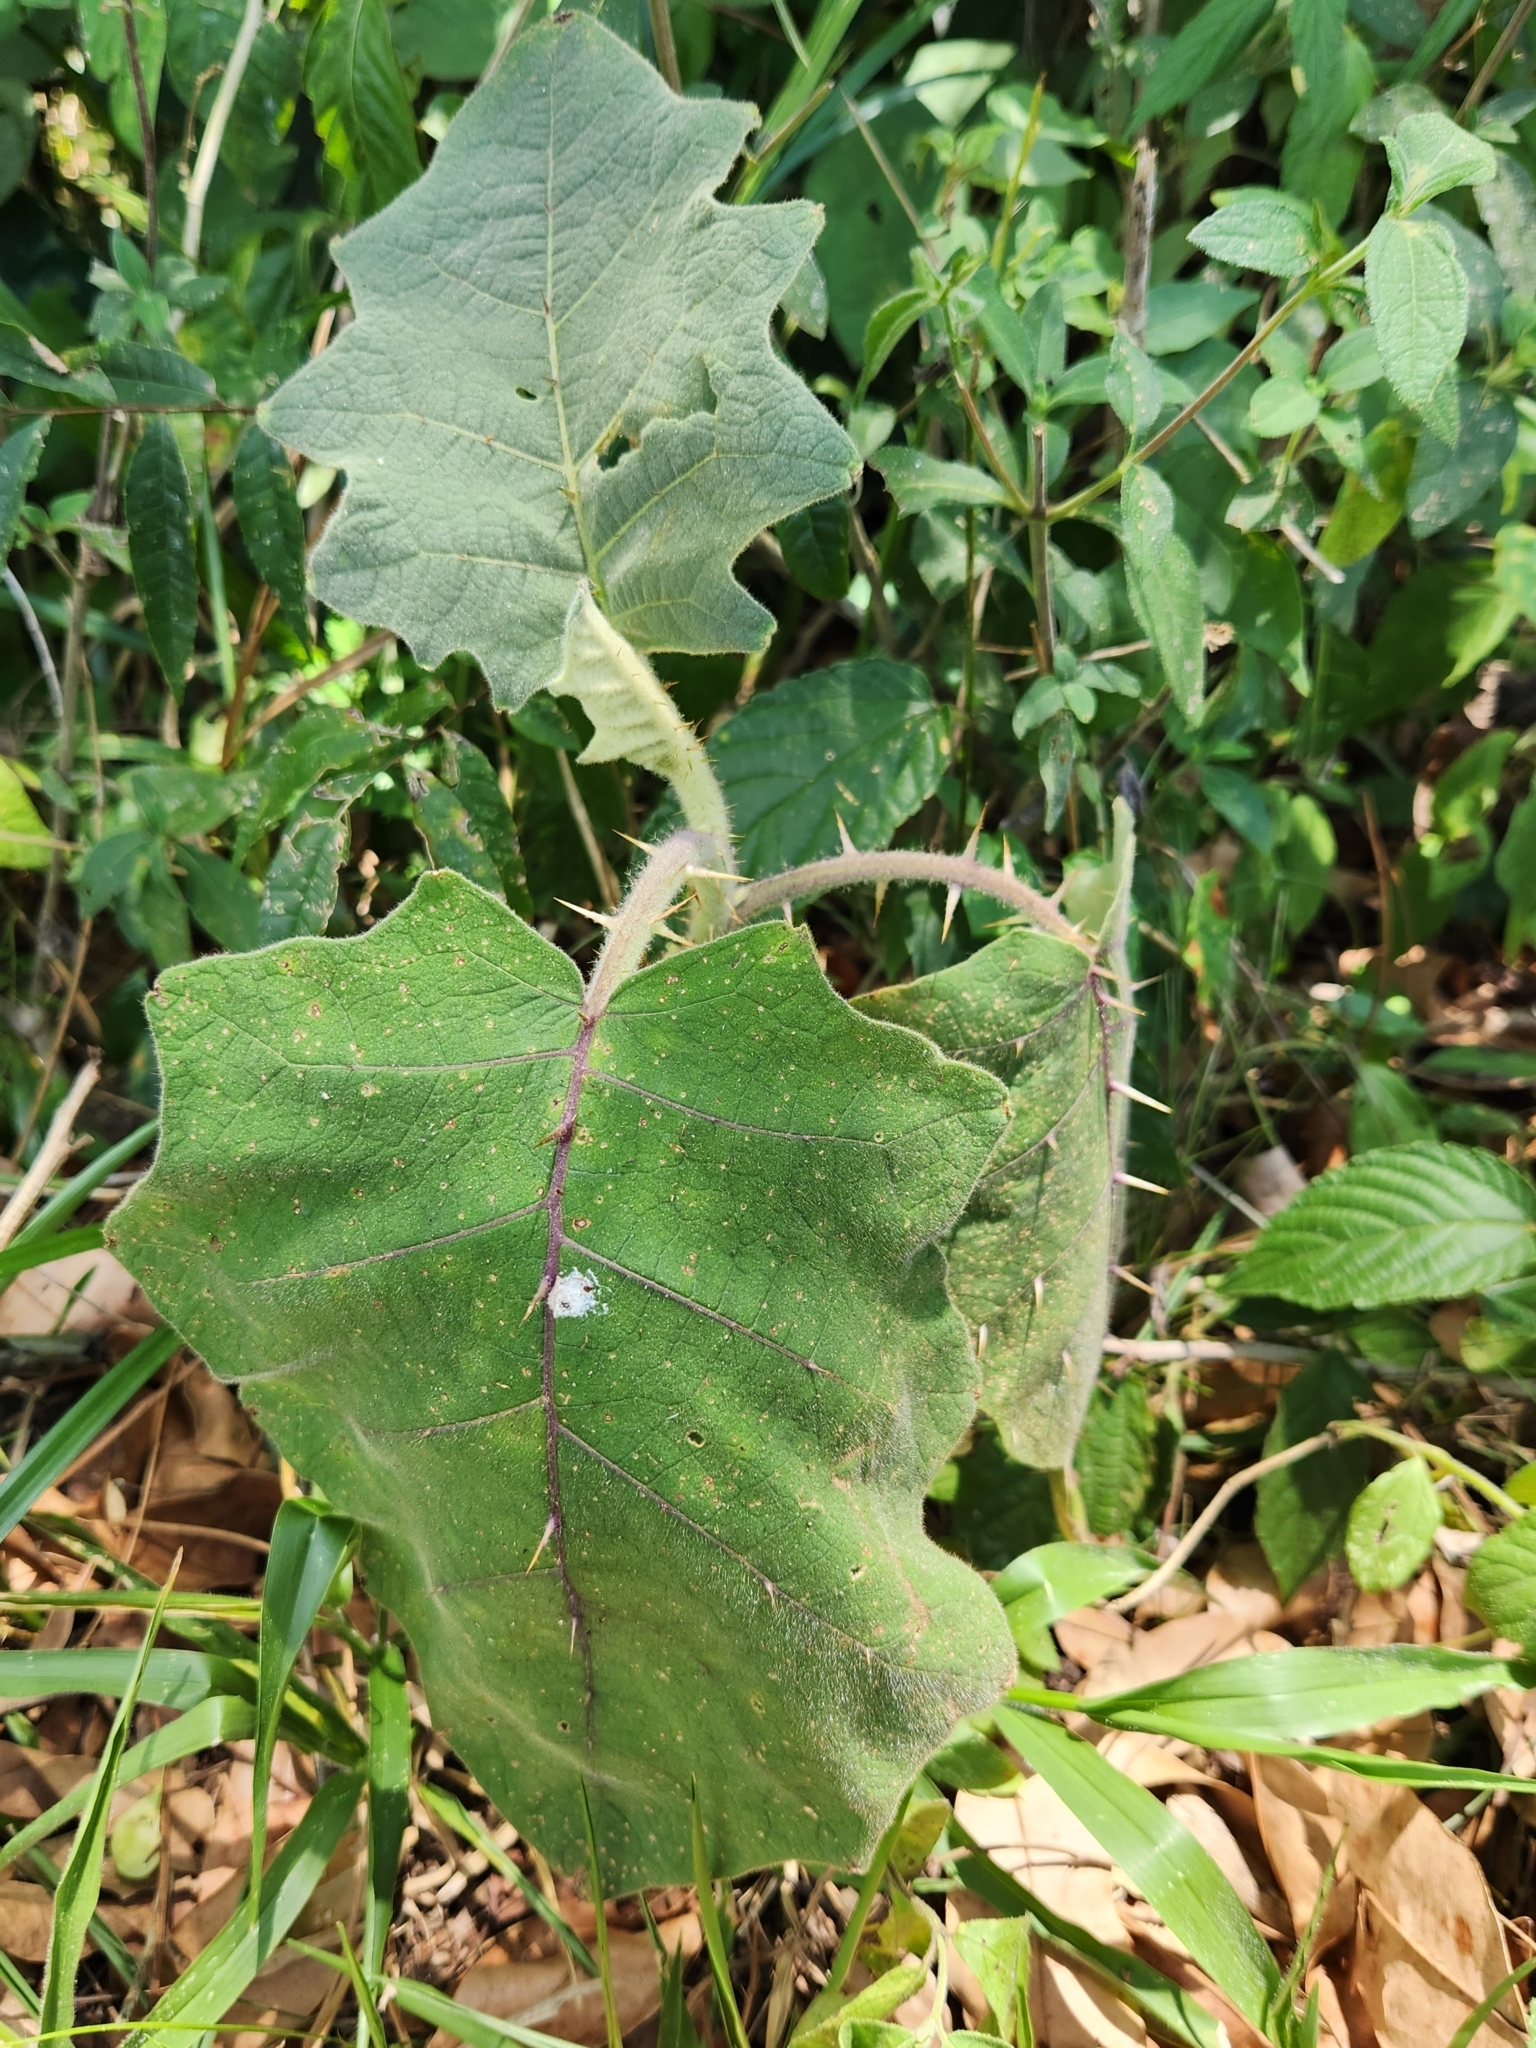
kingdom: Plantae
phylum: Tracheophyta
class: Magnoliopsida
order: Solanales
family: Solanaceae
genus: Solanum
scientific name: Solanum hirtum
